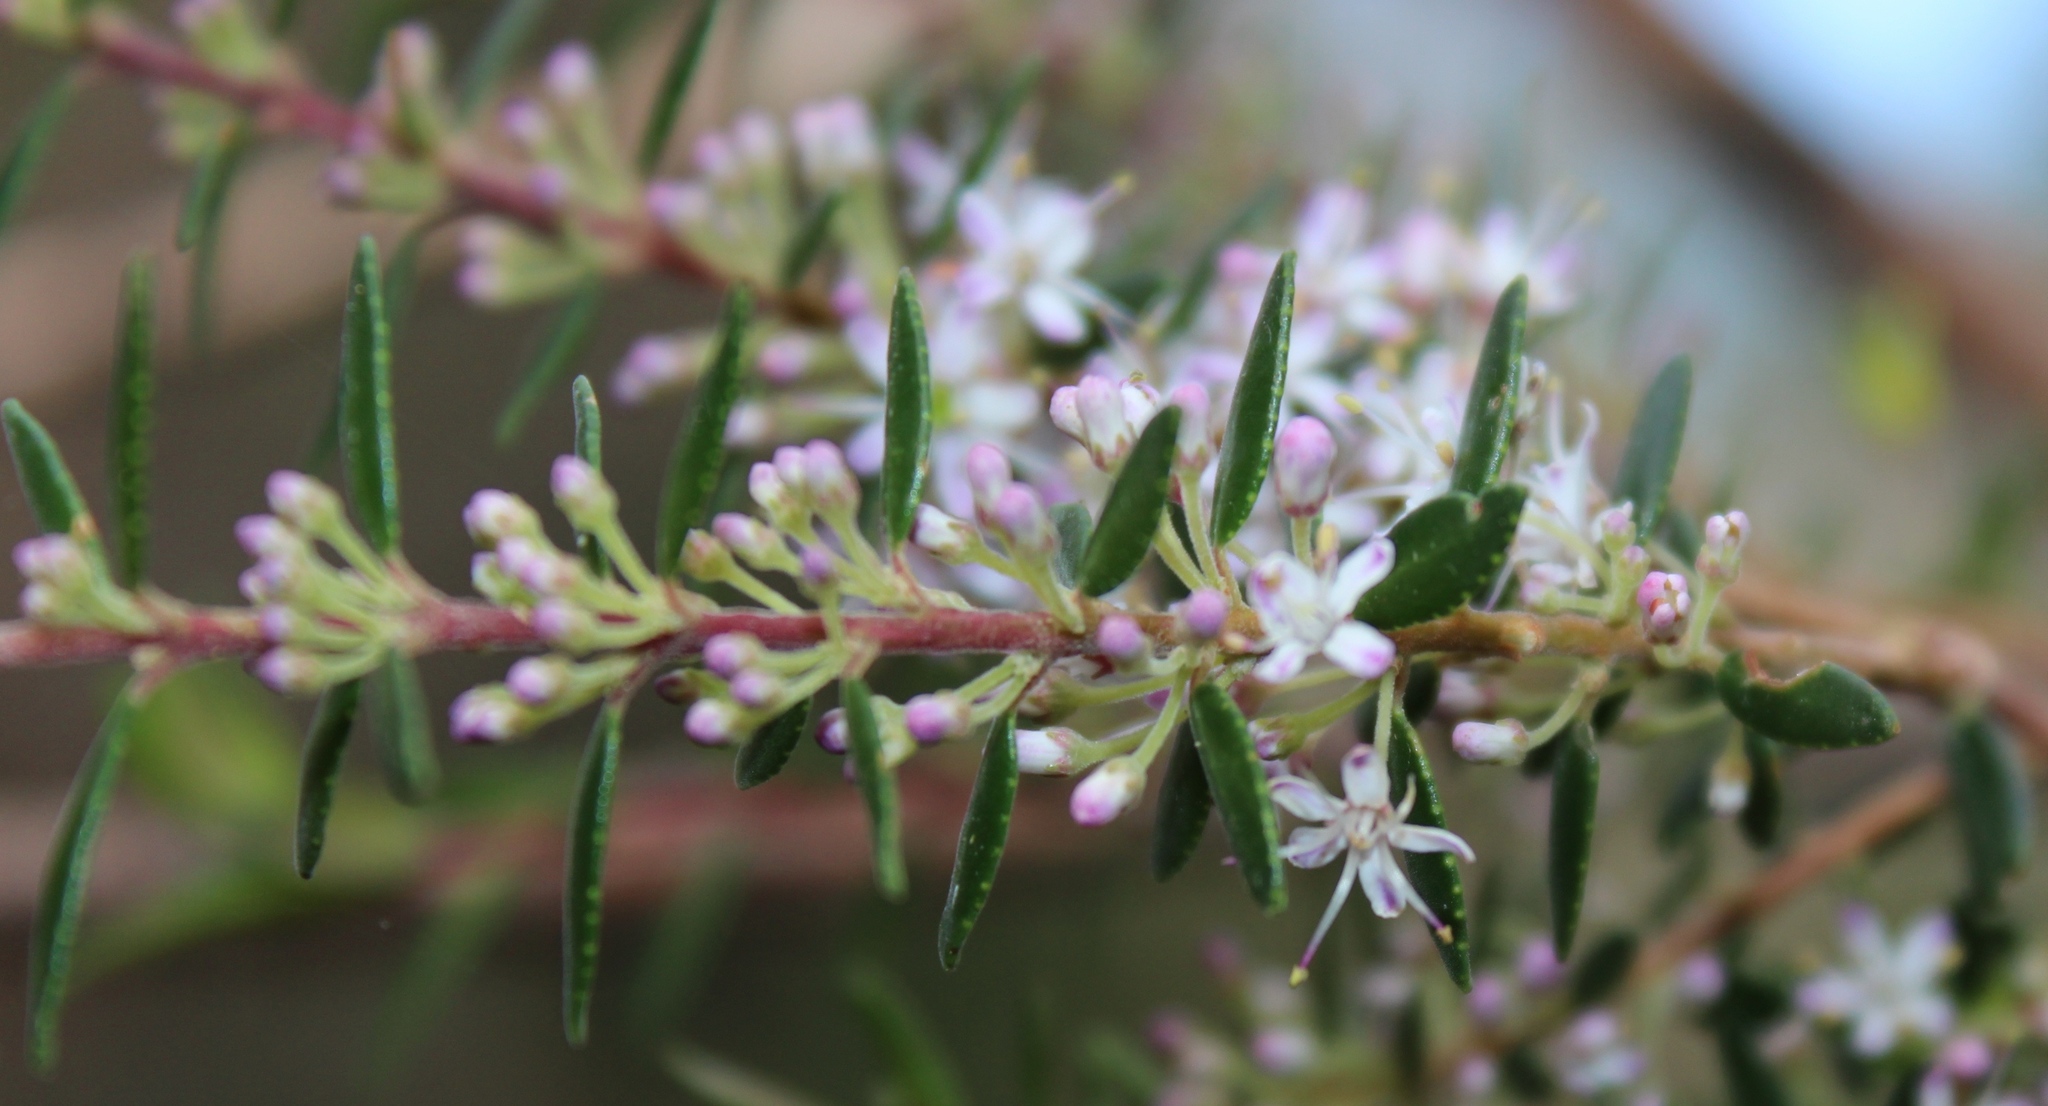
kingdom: Plantae
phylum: Tracheophyta
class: Magnoliopsida
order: Sapindales
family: Rutaceae
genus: Agathosma
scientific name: Agathosma ovata
